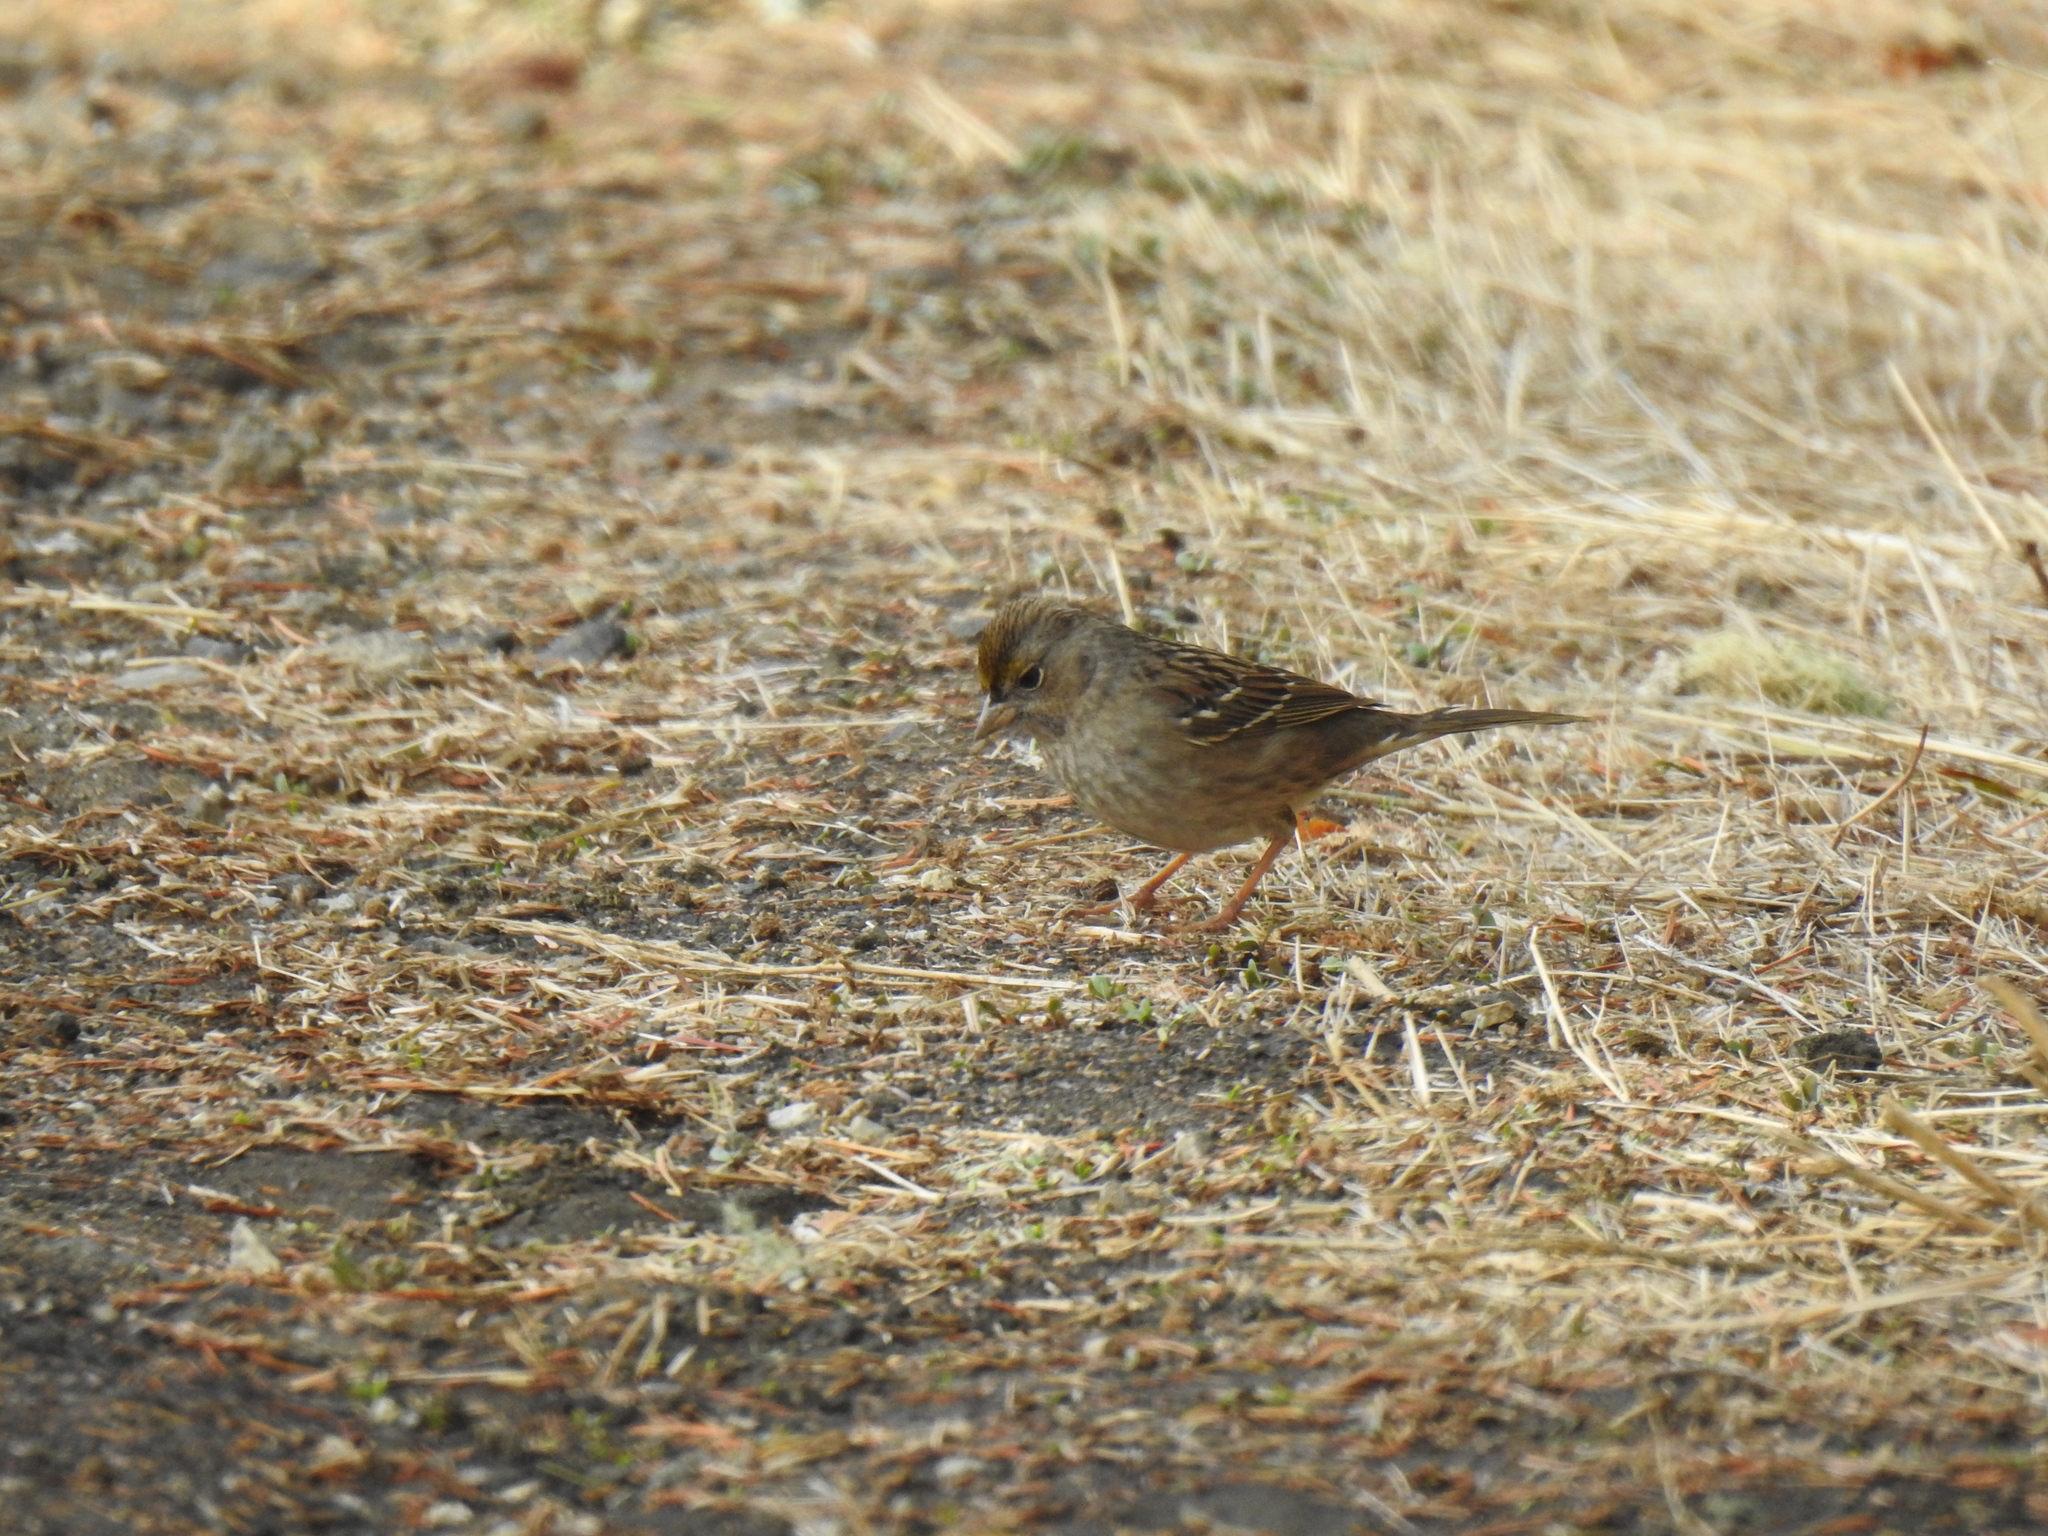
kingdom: Animalia
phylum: Chordata
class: Aves
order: Passeriformes
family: Passerellidae
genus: Zonotrichia
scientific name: Zonotrichia atricapilla
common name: Golden-crowned sparrow
